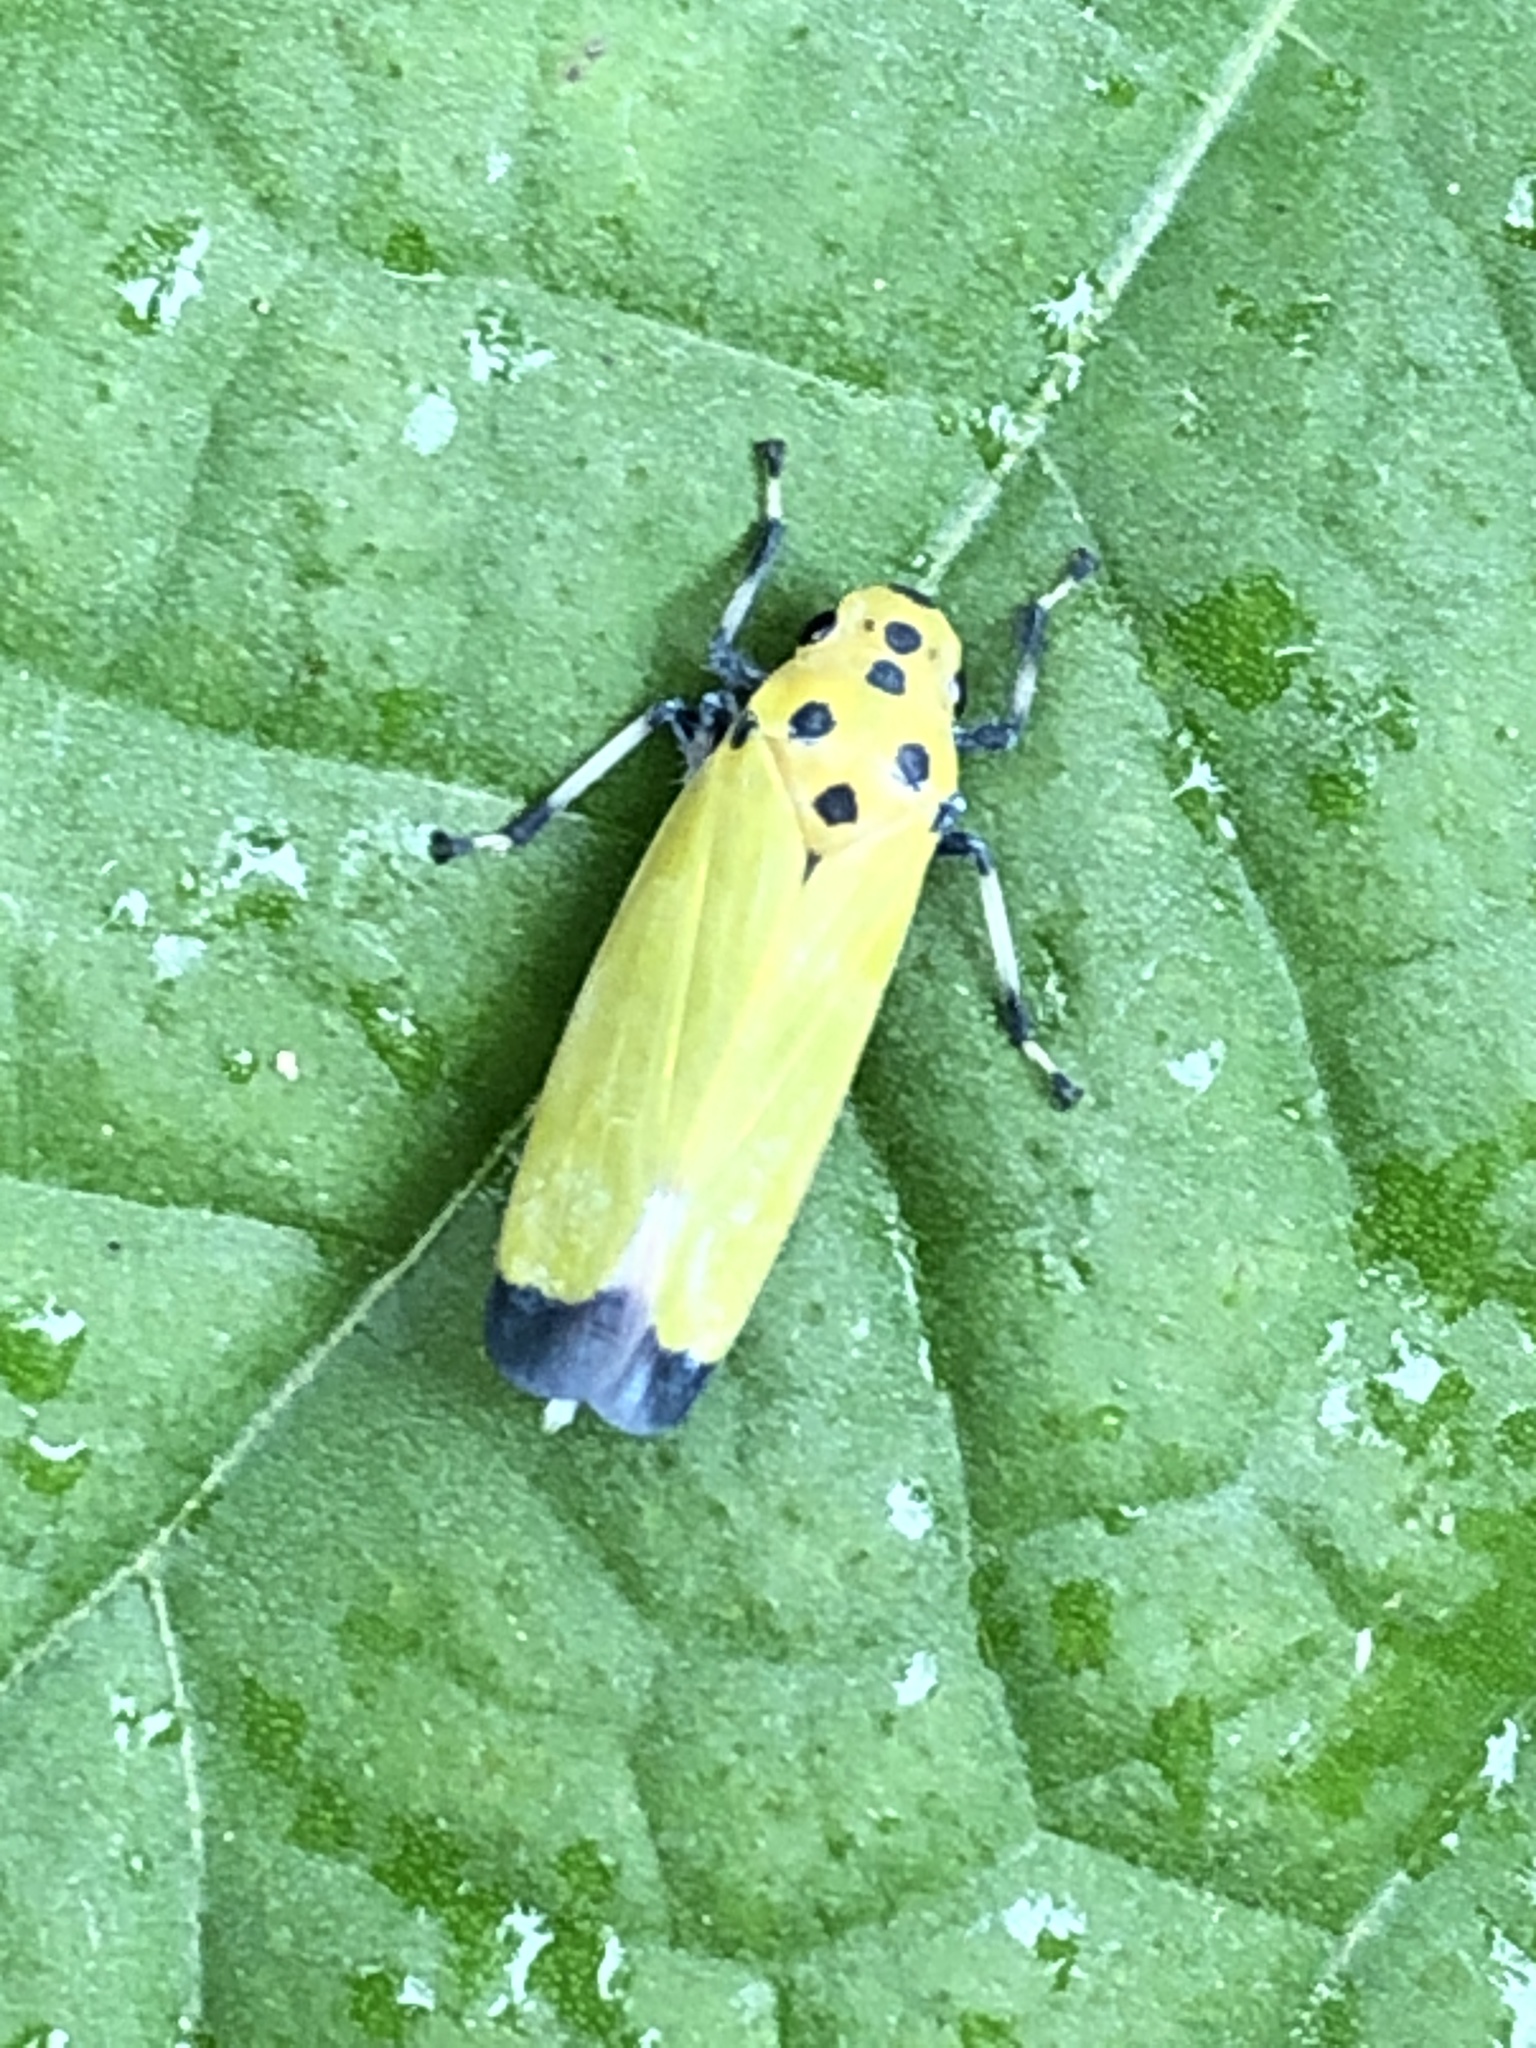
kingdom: Animalia
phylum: Arthropoda
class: Insecta
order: Hemiptera
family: Cicadellidae
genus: Bothrogonia
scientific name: Bothrogonia ferruginea
